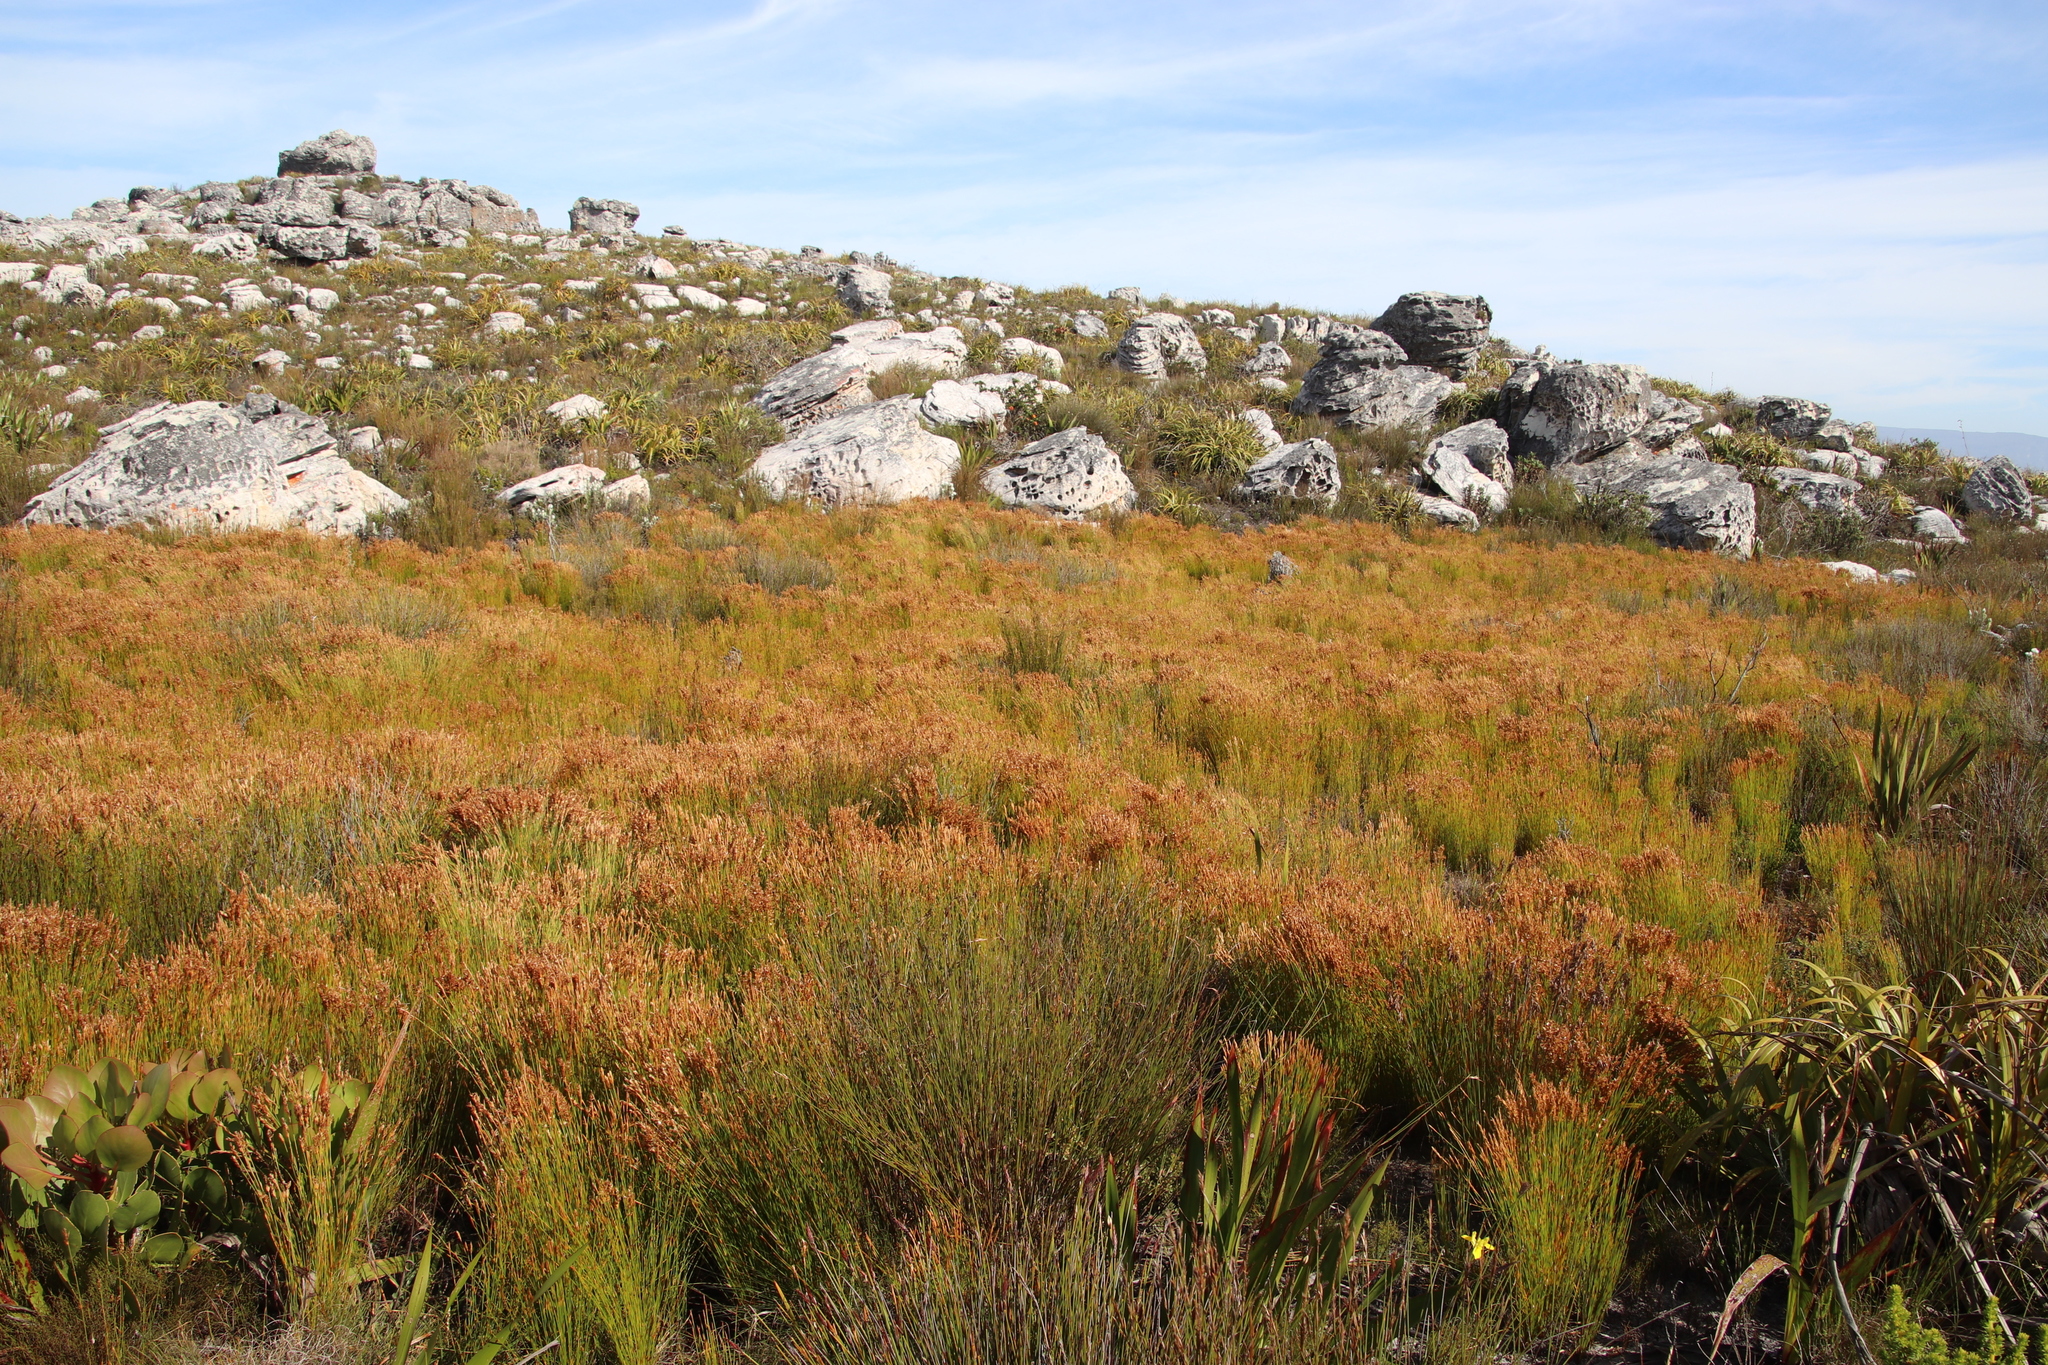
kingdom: Plantae
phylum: Tracheophyta
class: Liliopsida
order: Poales
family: Restionaceae
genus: Elegia
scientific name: Elegia filacea
